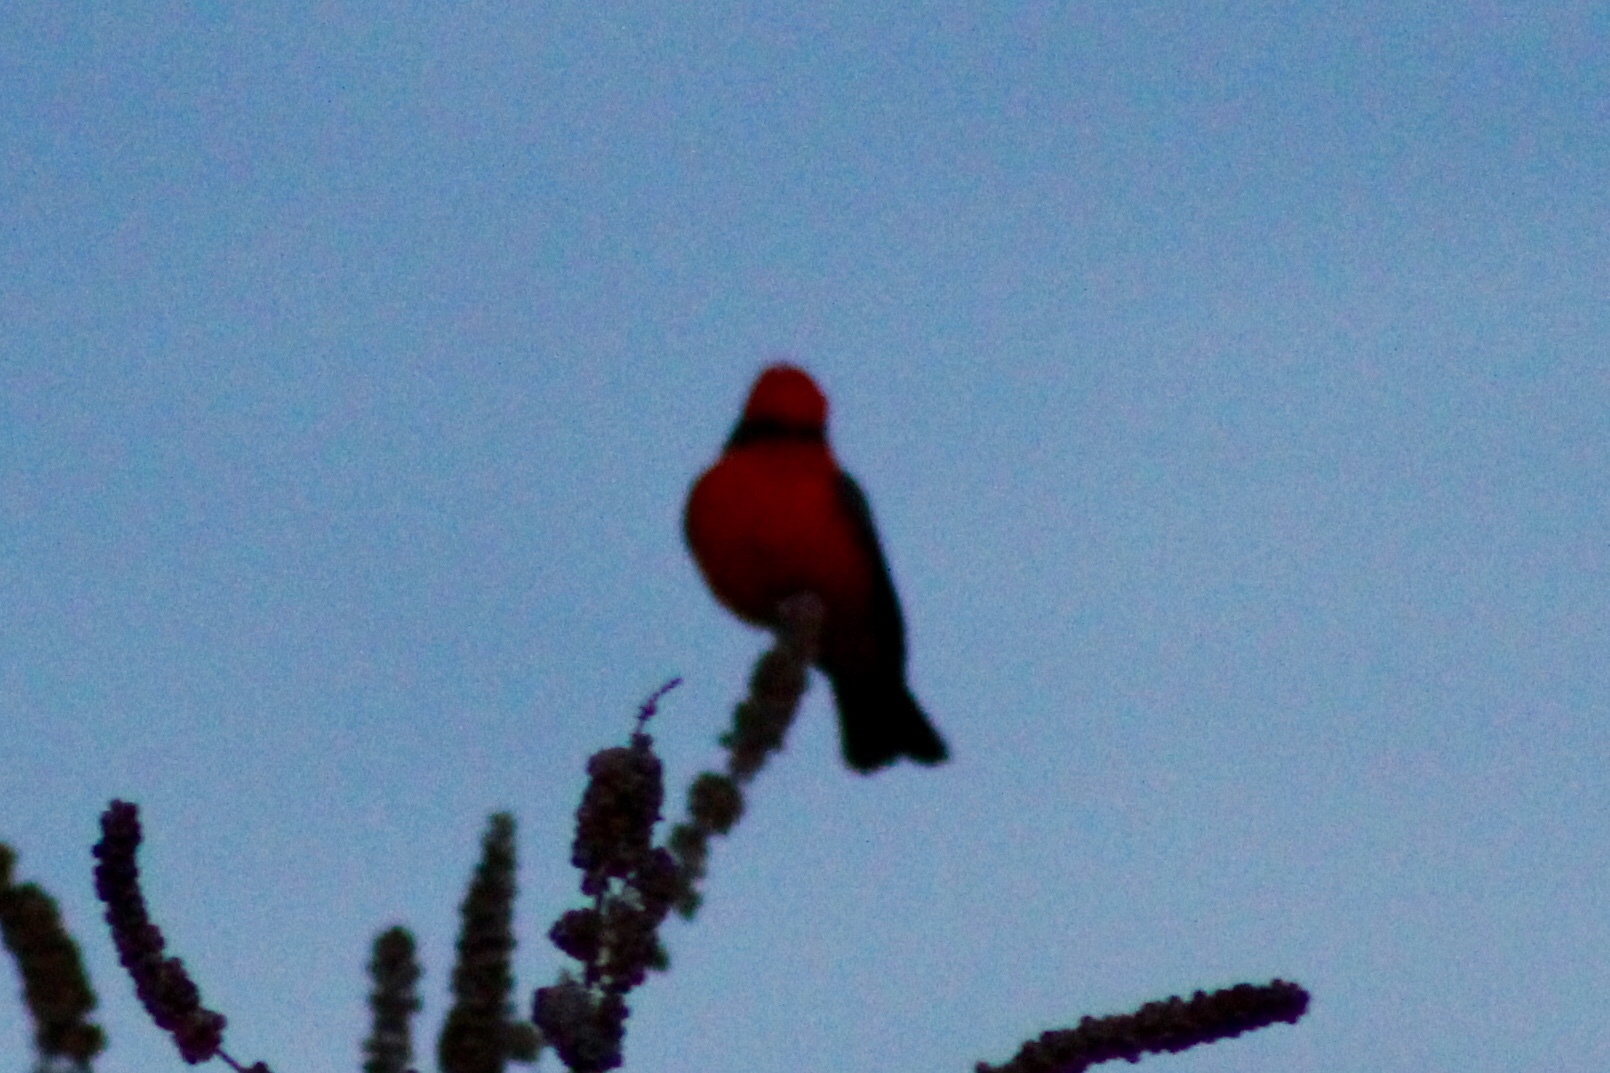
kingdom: Animalia
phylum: Chordata
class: Aves
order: Passeriformes
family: Tyrannidae
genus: Pyrocephalus
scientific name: Pyrocephalus rubinus
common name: Vermilion flycatcher
